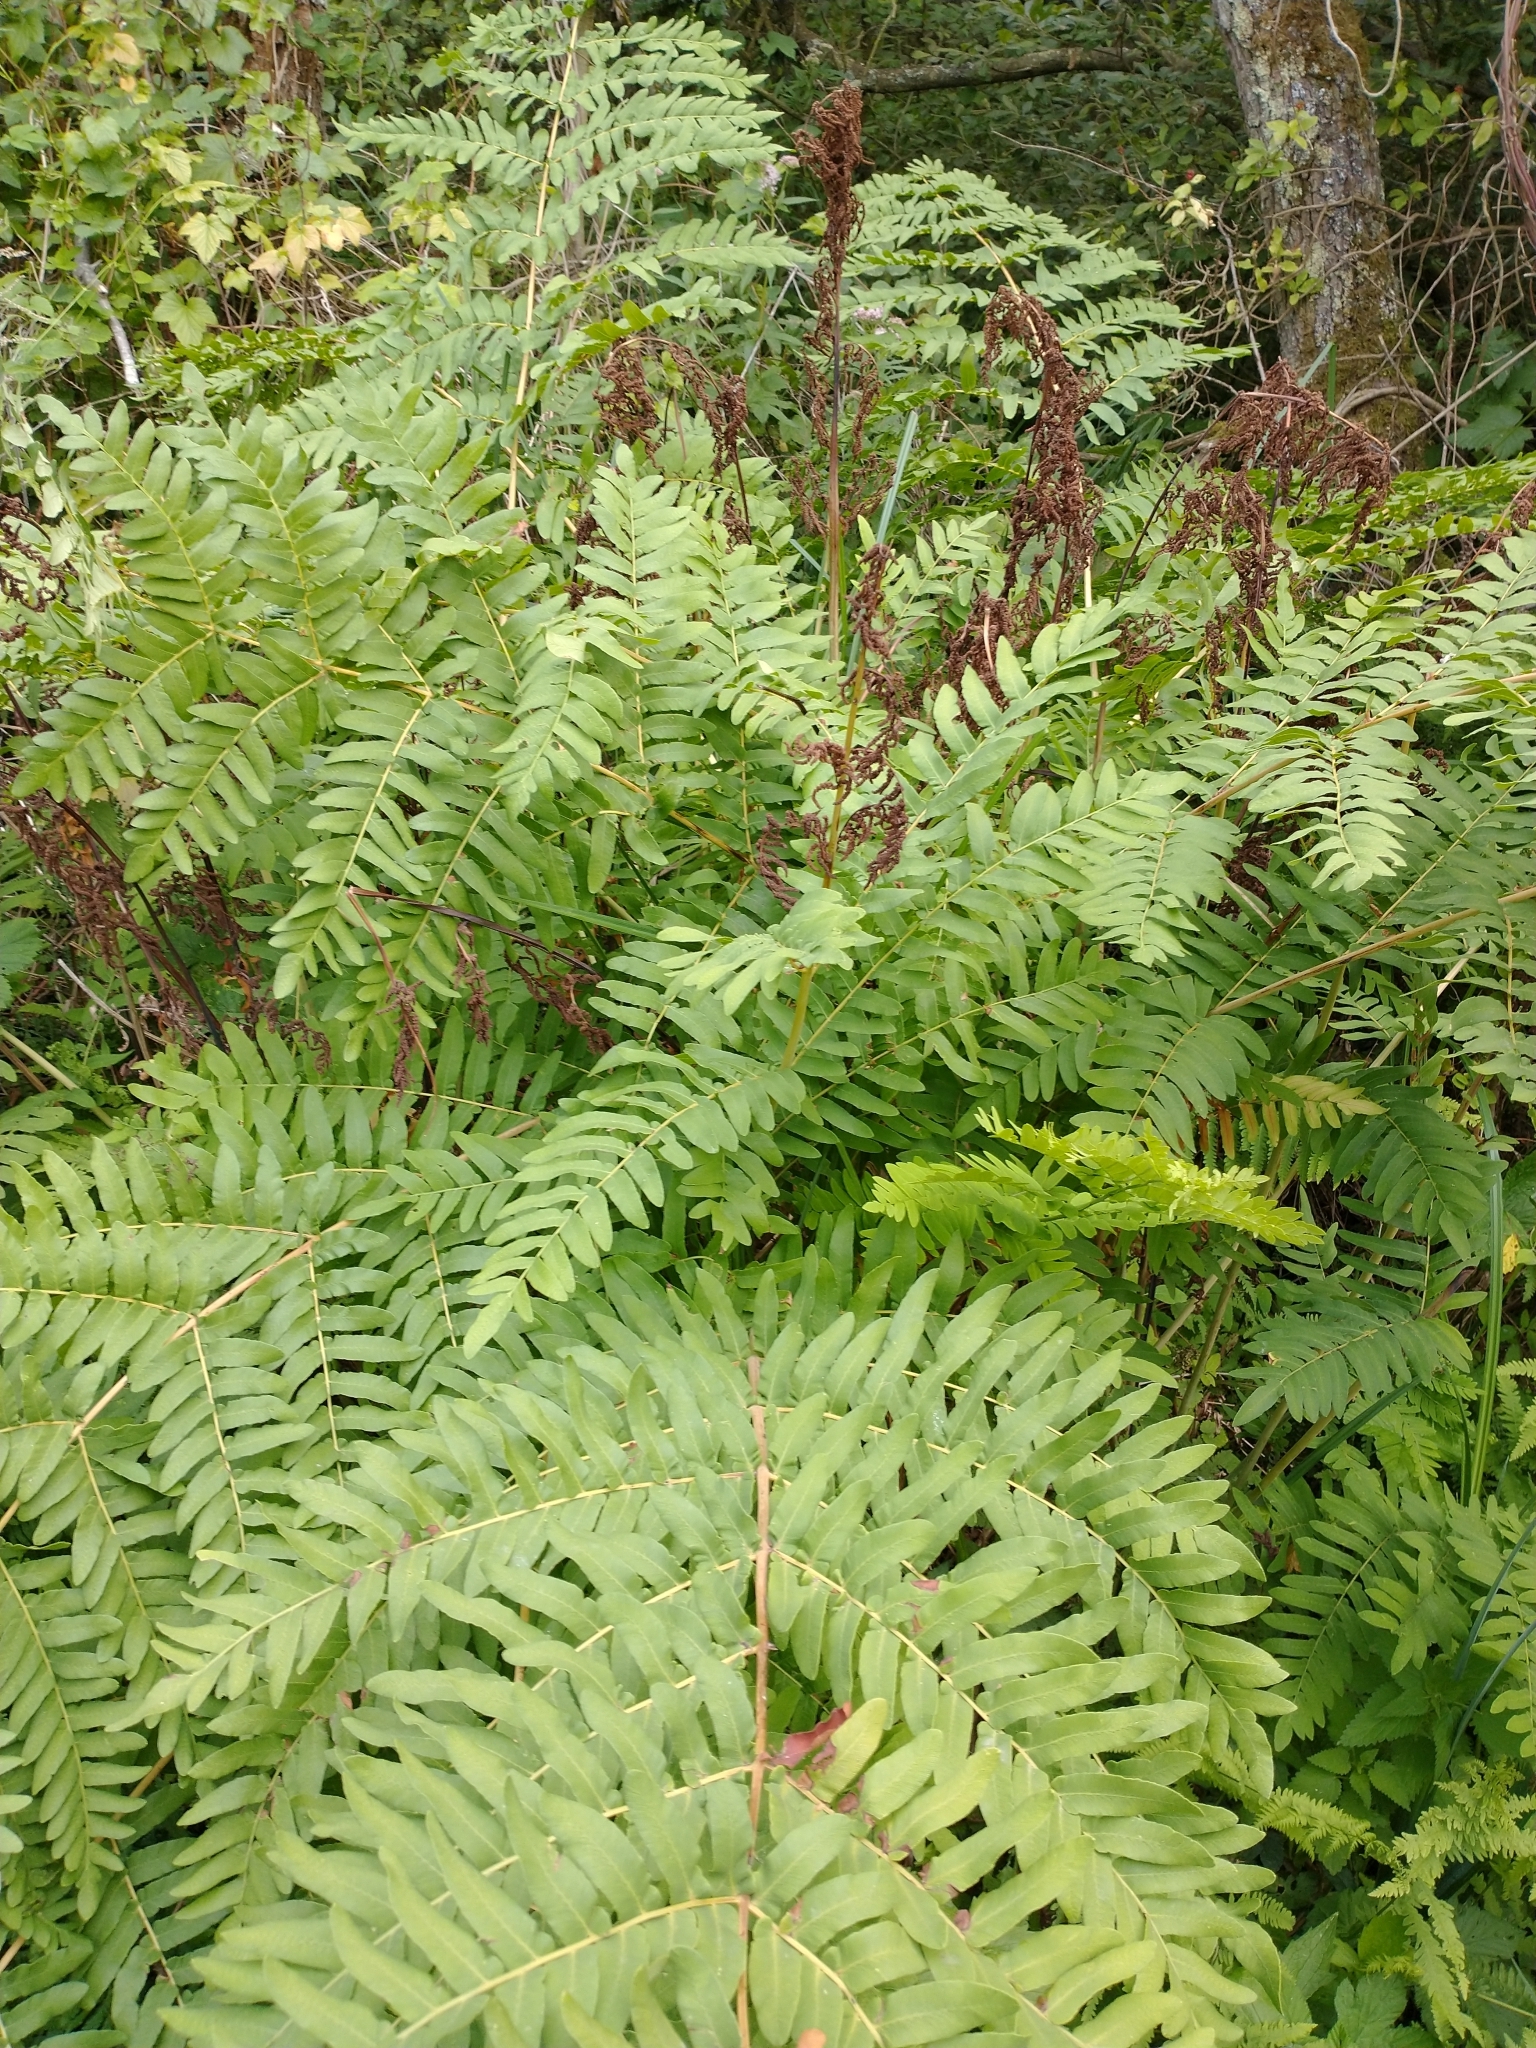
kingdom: Plantae
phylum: Tracheophyta
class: Polypodiopsida
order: Osmundales
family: Osmundaceae
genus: Osmunda
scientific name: Osmunda regalis
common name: Royal fern
